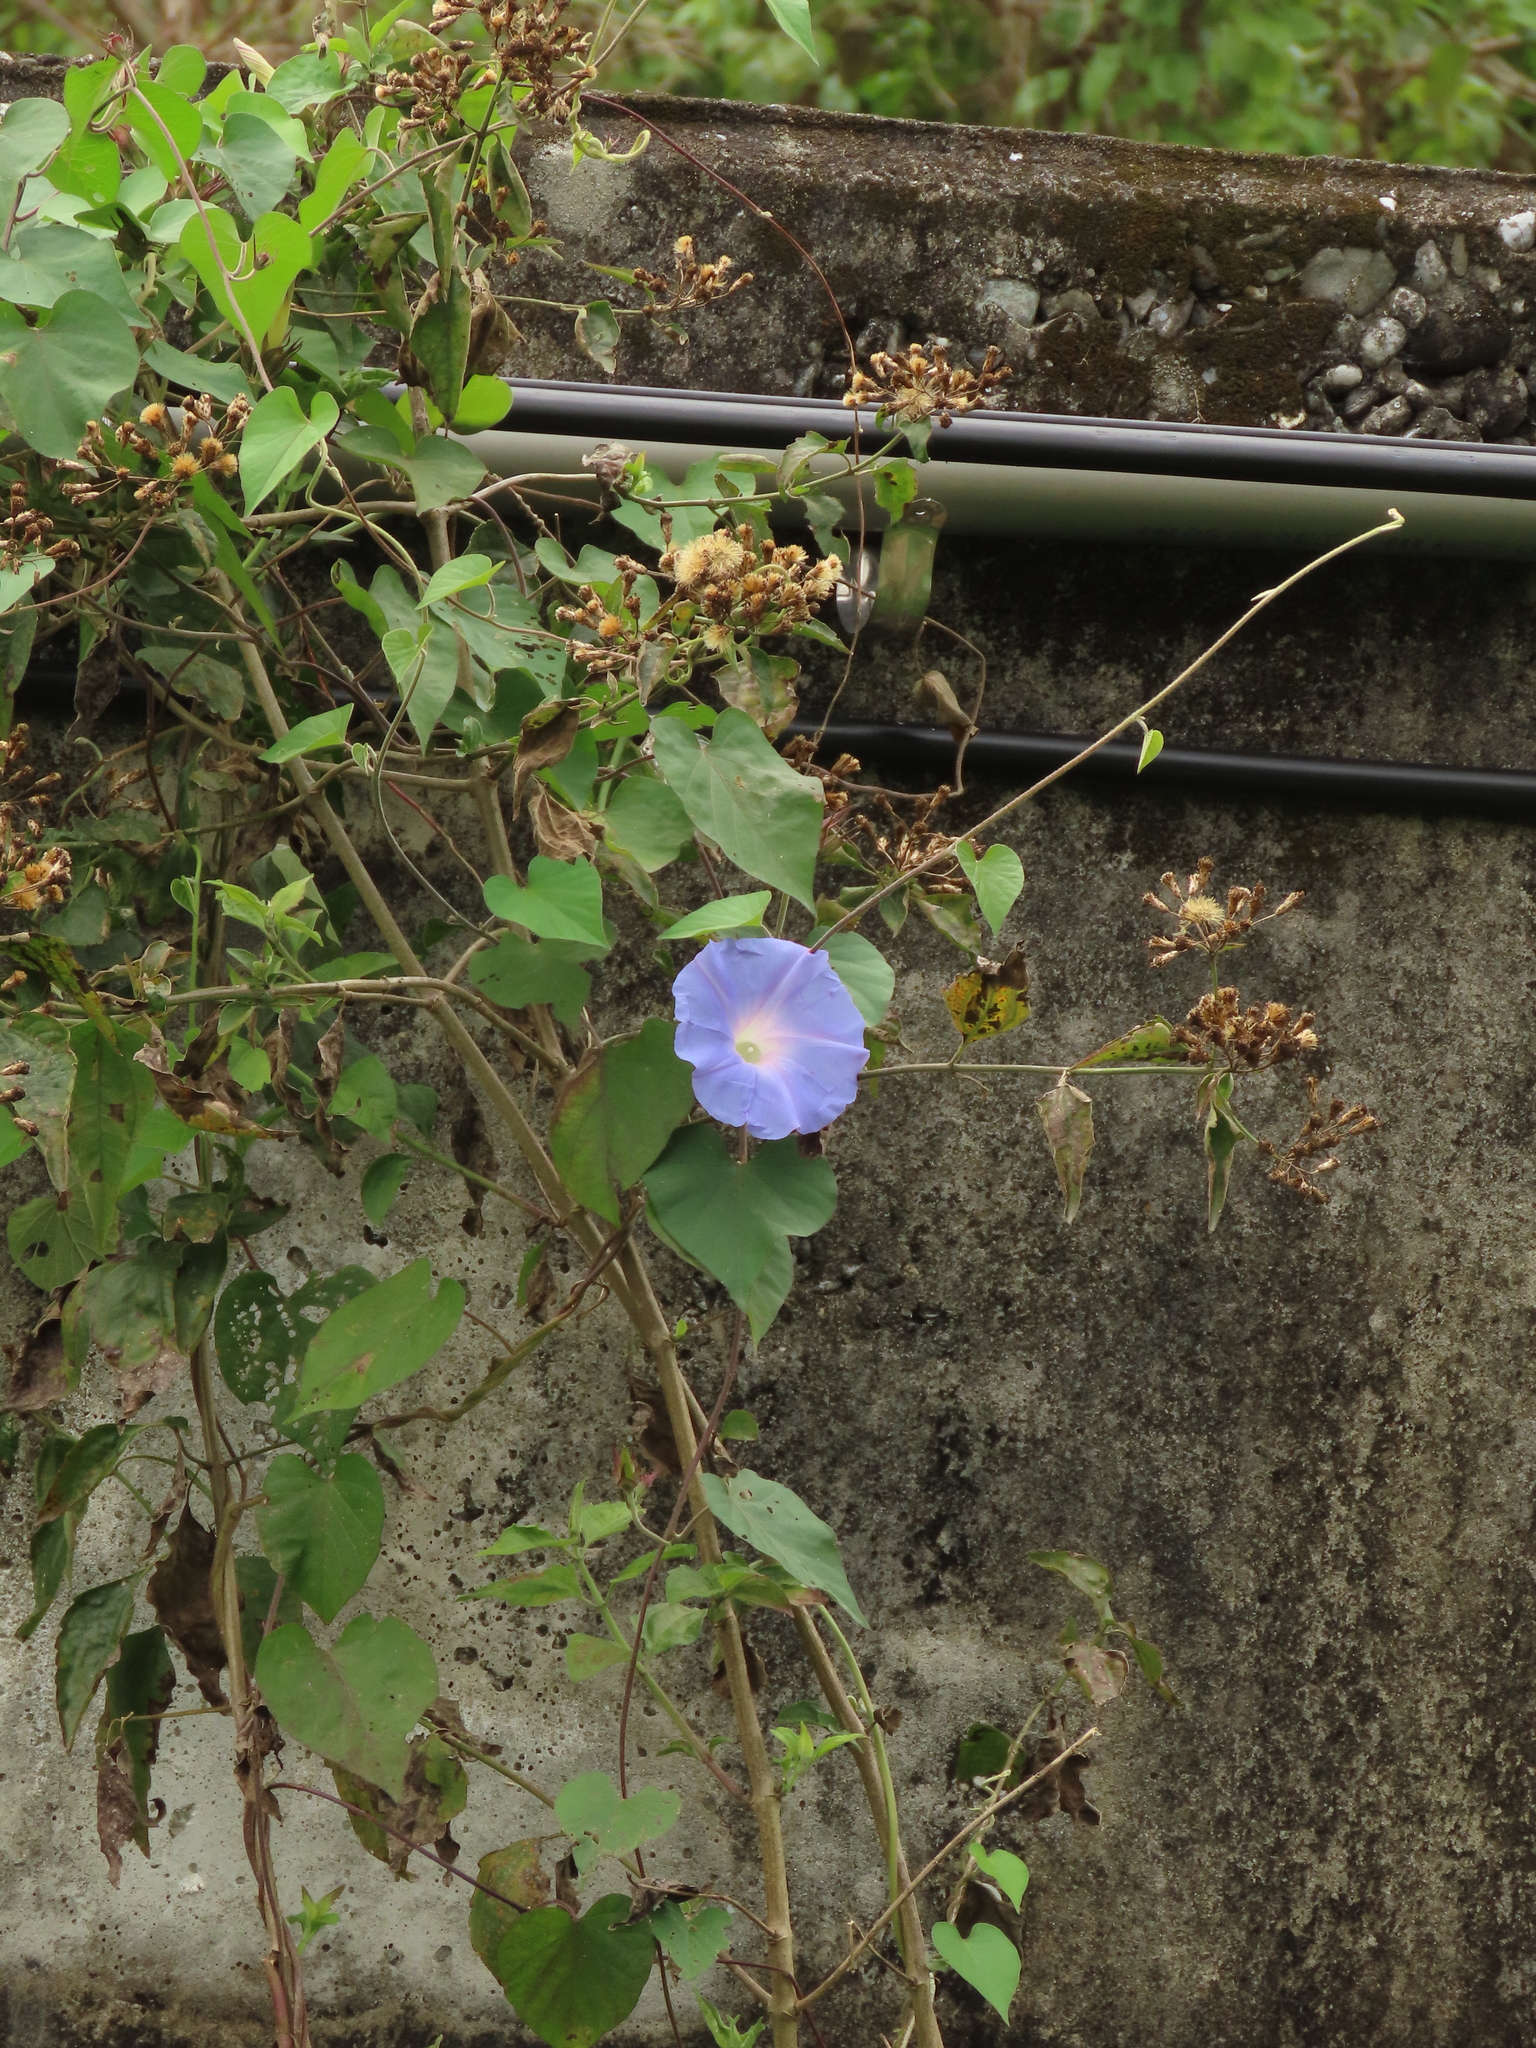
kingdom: Plantae
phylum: Tracheophyta
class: Magnoliopsida
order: Solanales
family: Convolvulaceae
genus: Ipomoea
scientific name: Ipomoea indica
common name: Blue dawnflower
